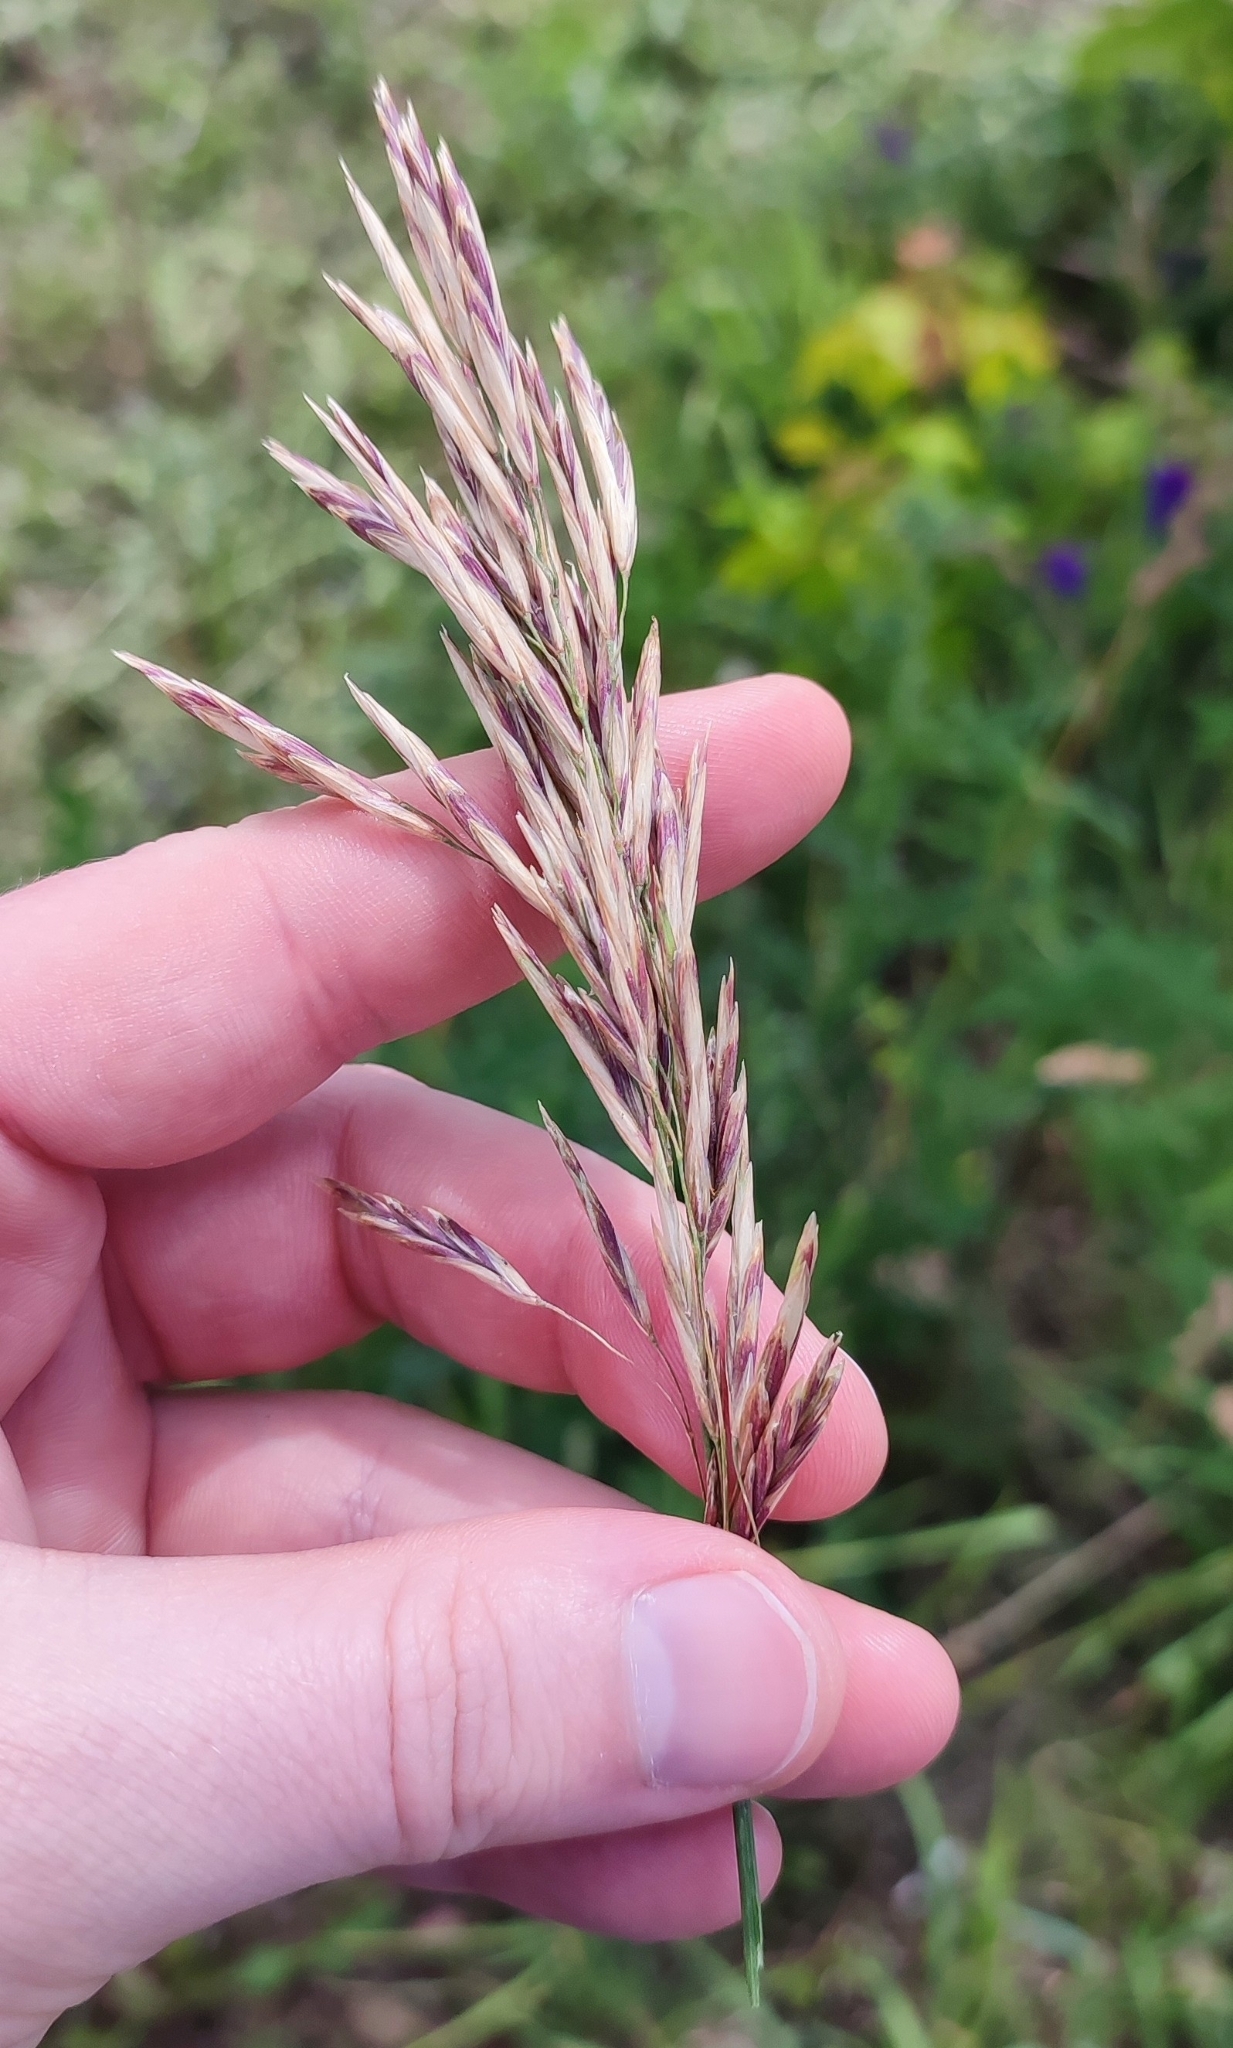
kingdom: Plantae
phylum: Tracheophyta
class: Liliopsida
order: Poales
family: Poaceae
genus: Bromus
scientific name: Bromus inermis
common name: Smooth brome
